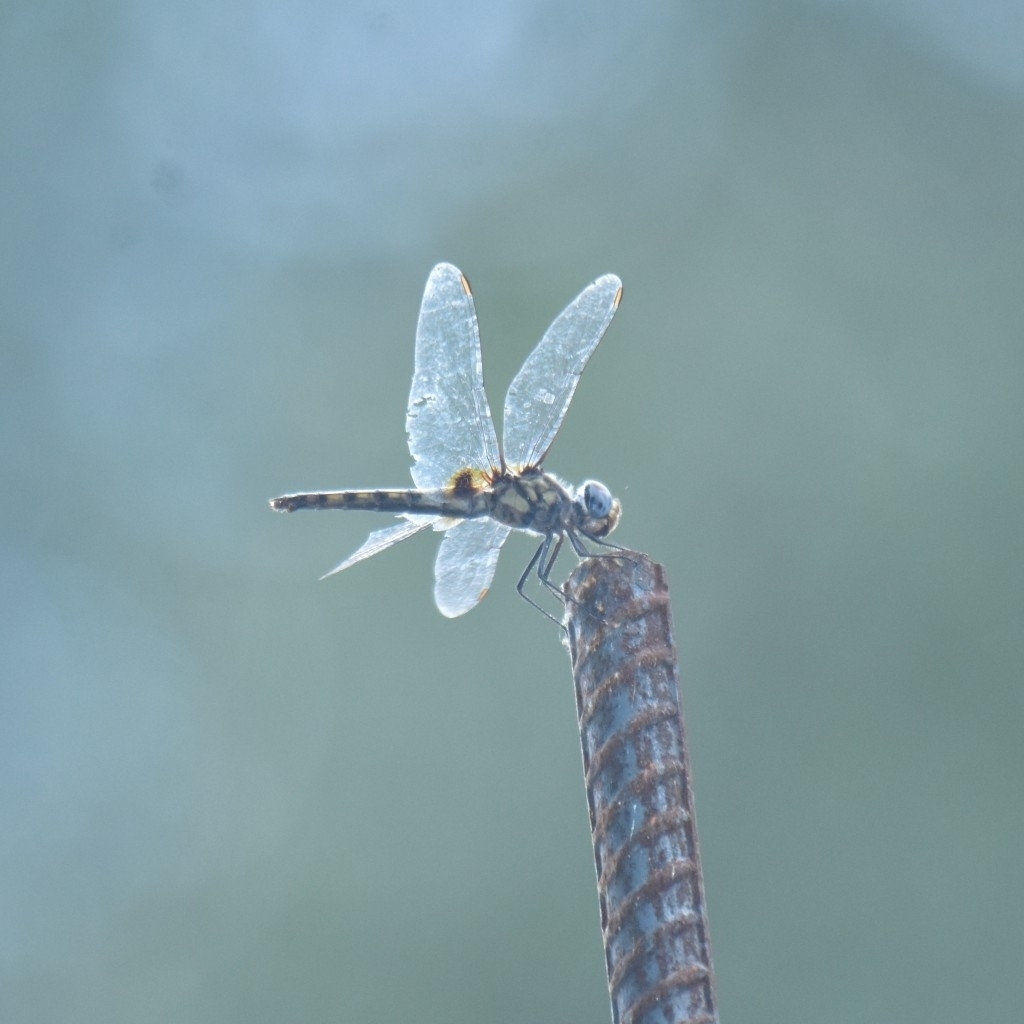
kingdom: Animalia
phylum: Arthropoda
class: Insecta
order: Odonata
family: Libellulidae
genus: Urothemis
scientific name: Urothemis signata
